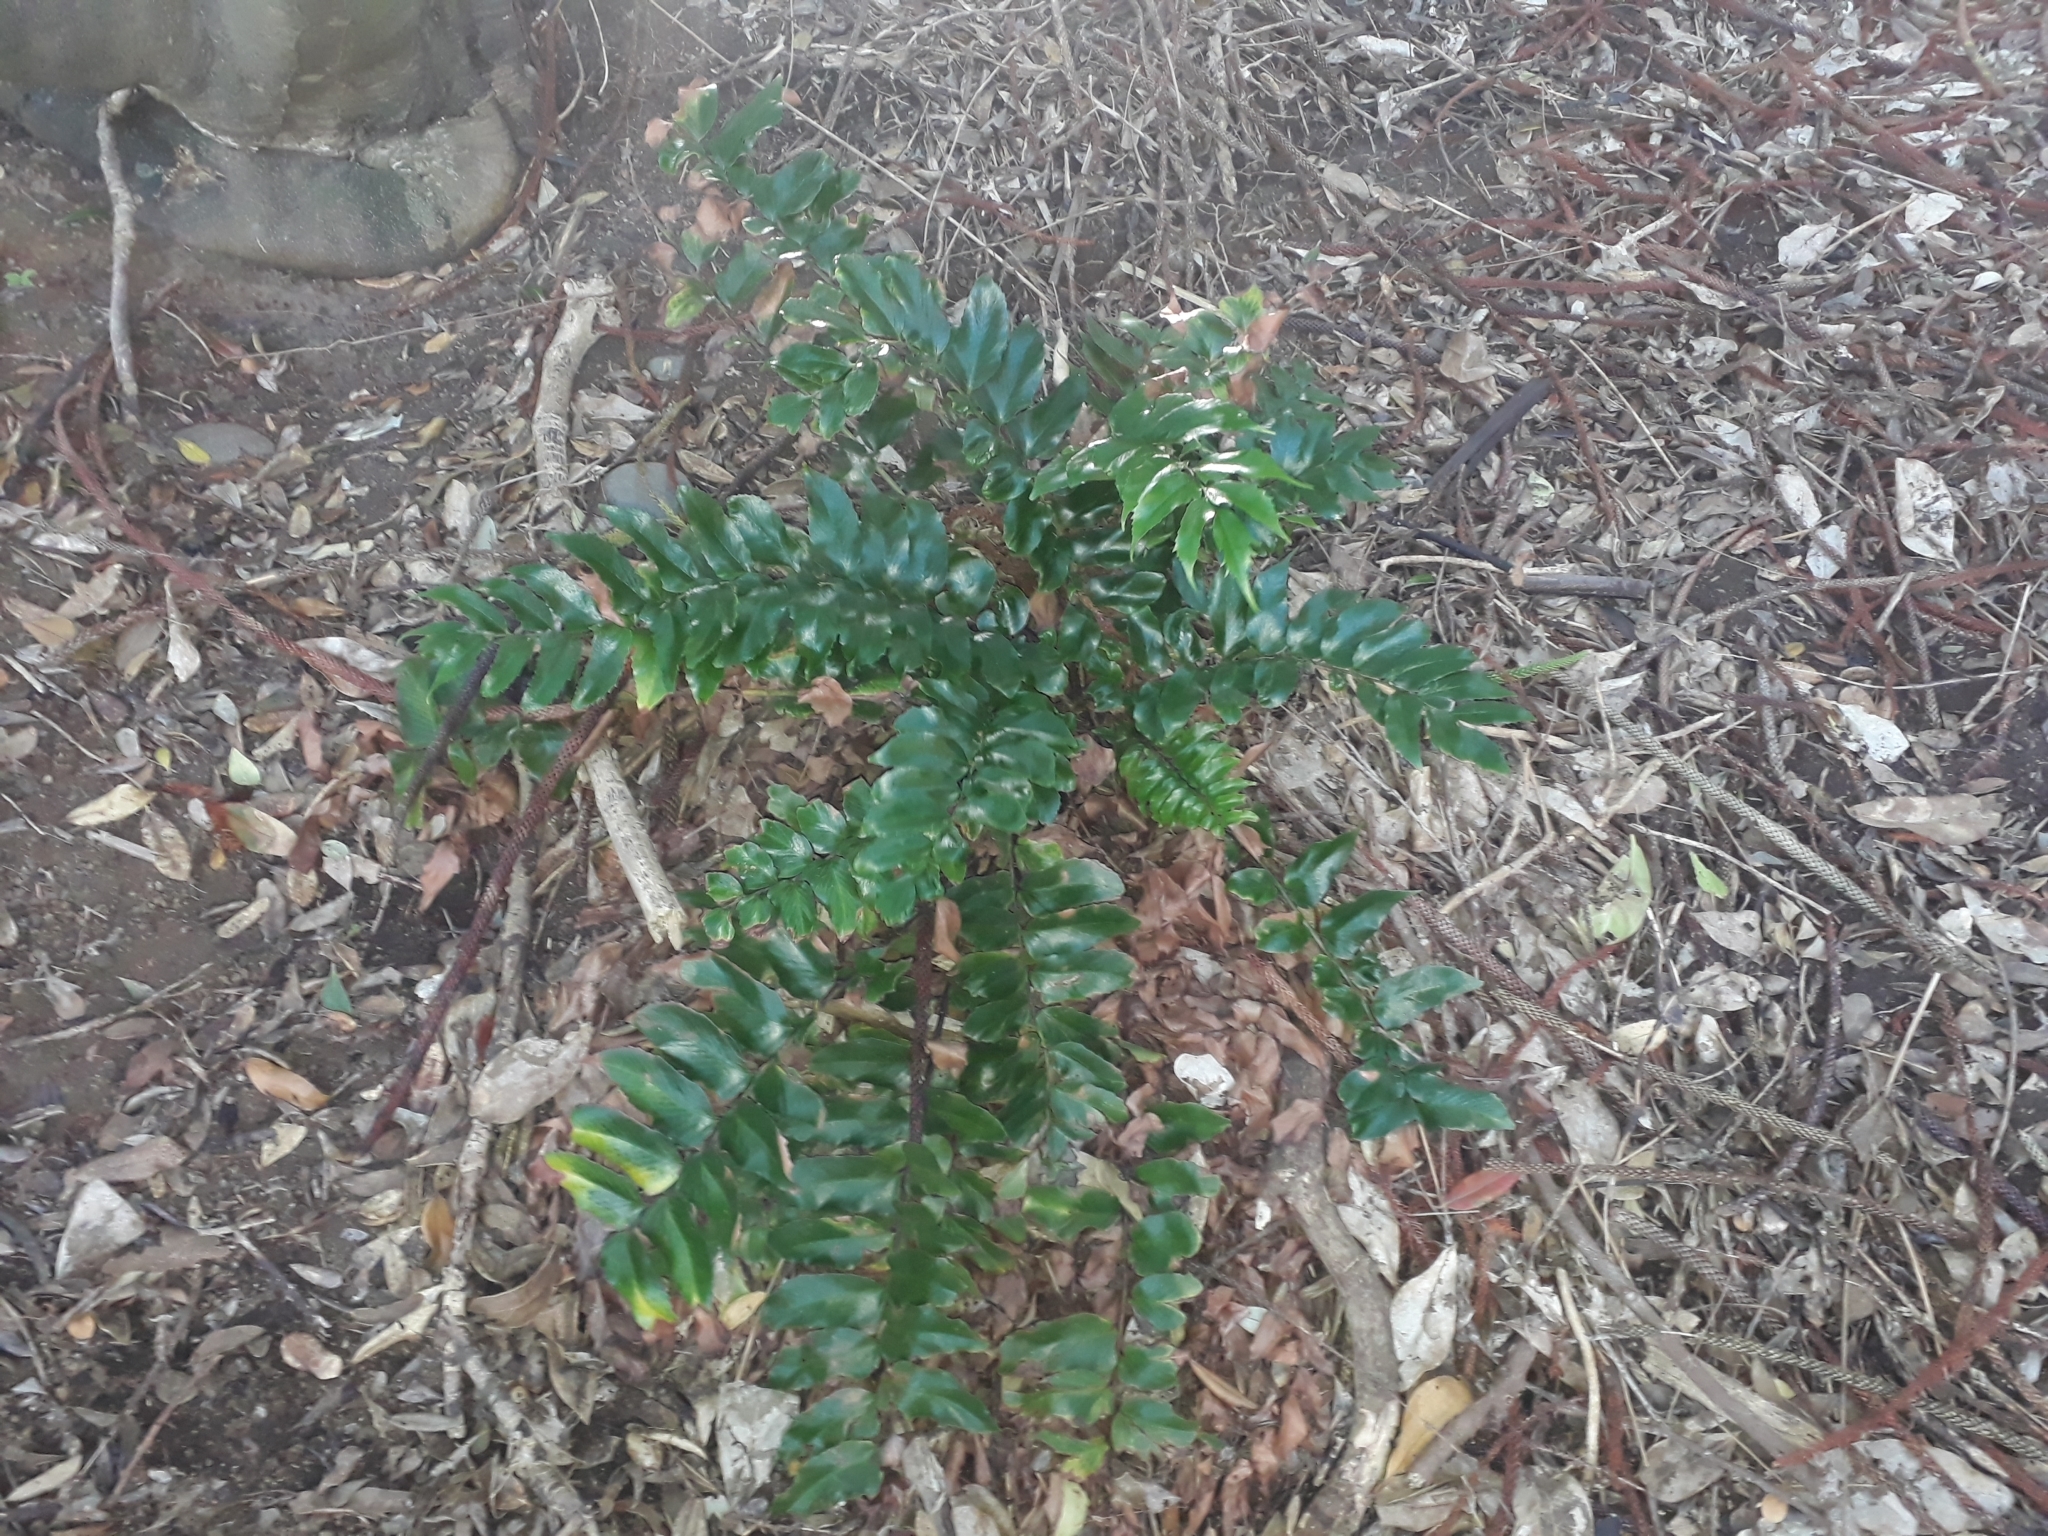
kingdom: Plantae
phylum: Tracheophyta
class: Polypodiopsida
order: Polypodiales
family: Dryopteridaceae
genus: Cyrtomium
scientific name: Cyrtomium falcatum
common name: House holly-fern
